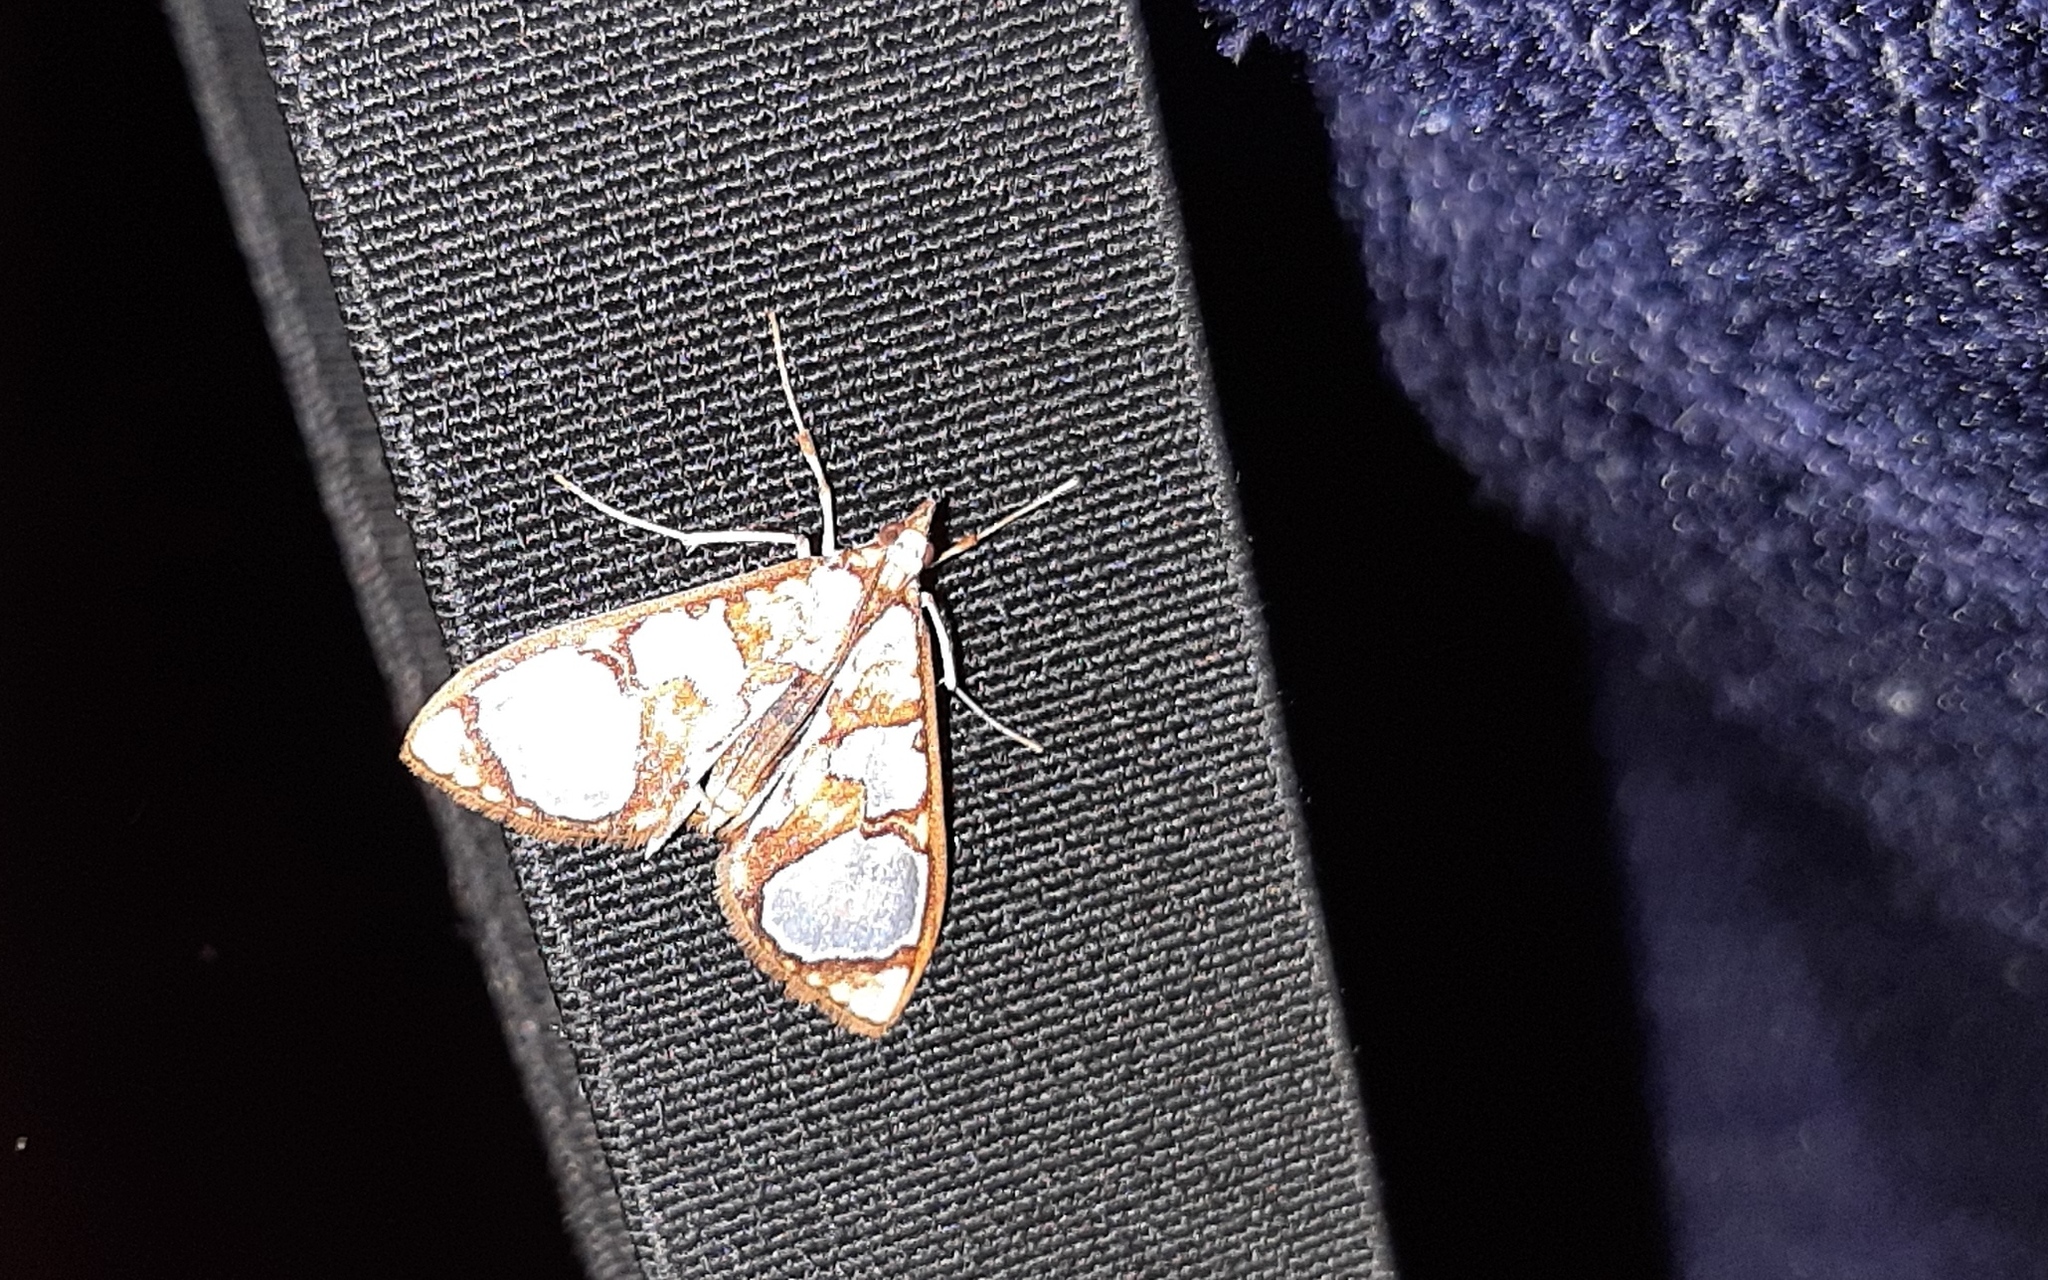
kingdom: Animalia
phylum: Arthropoda
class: Insecta
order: Lepidoptera
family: Crambidae
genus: Glyphodes
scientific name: Glyphodes grandisalis
